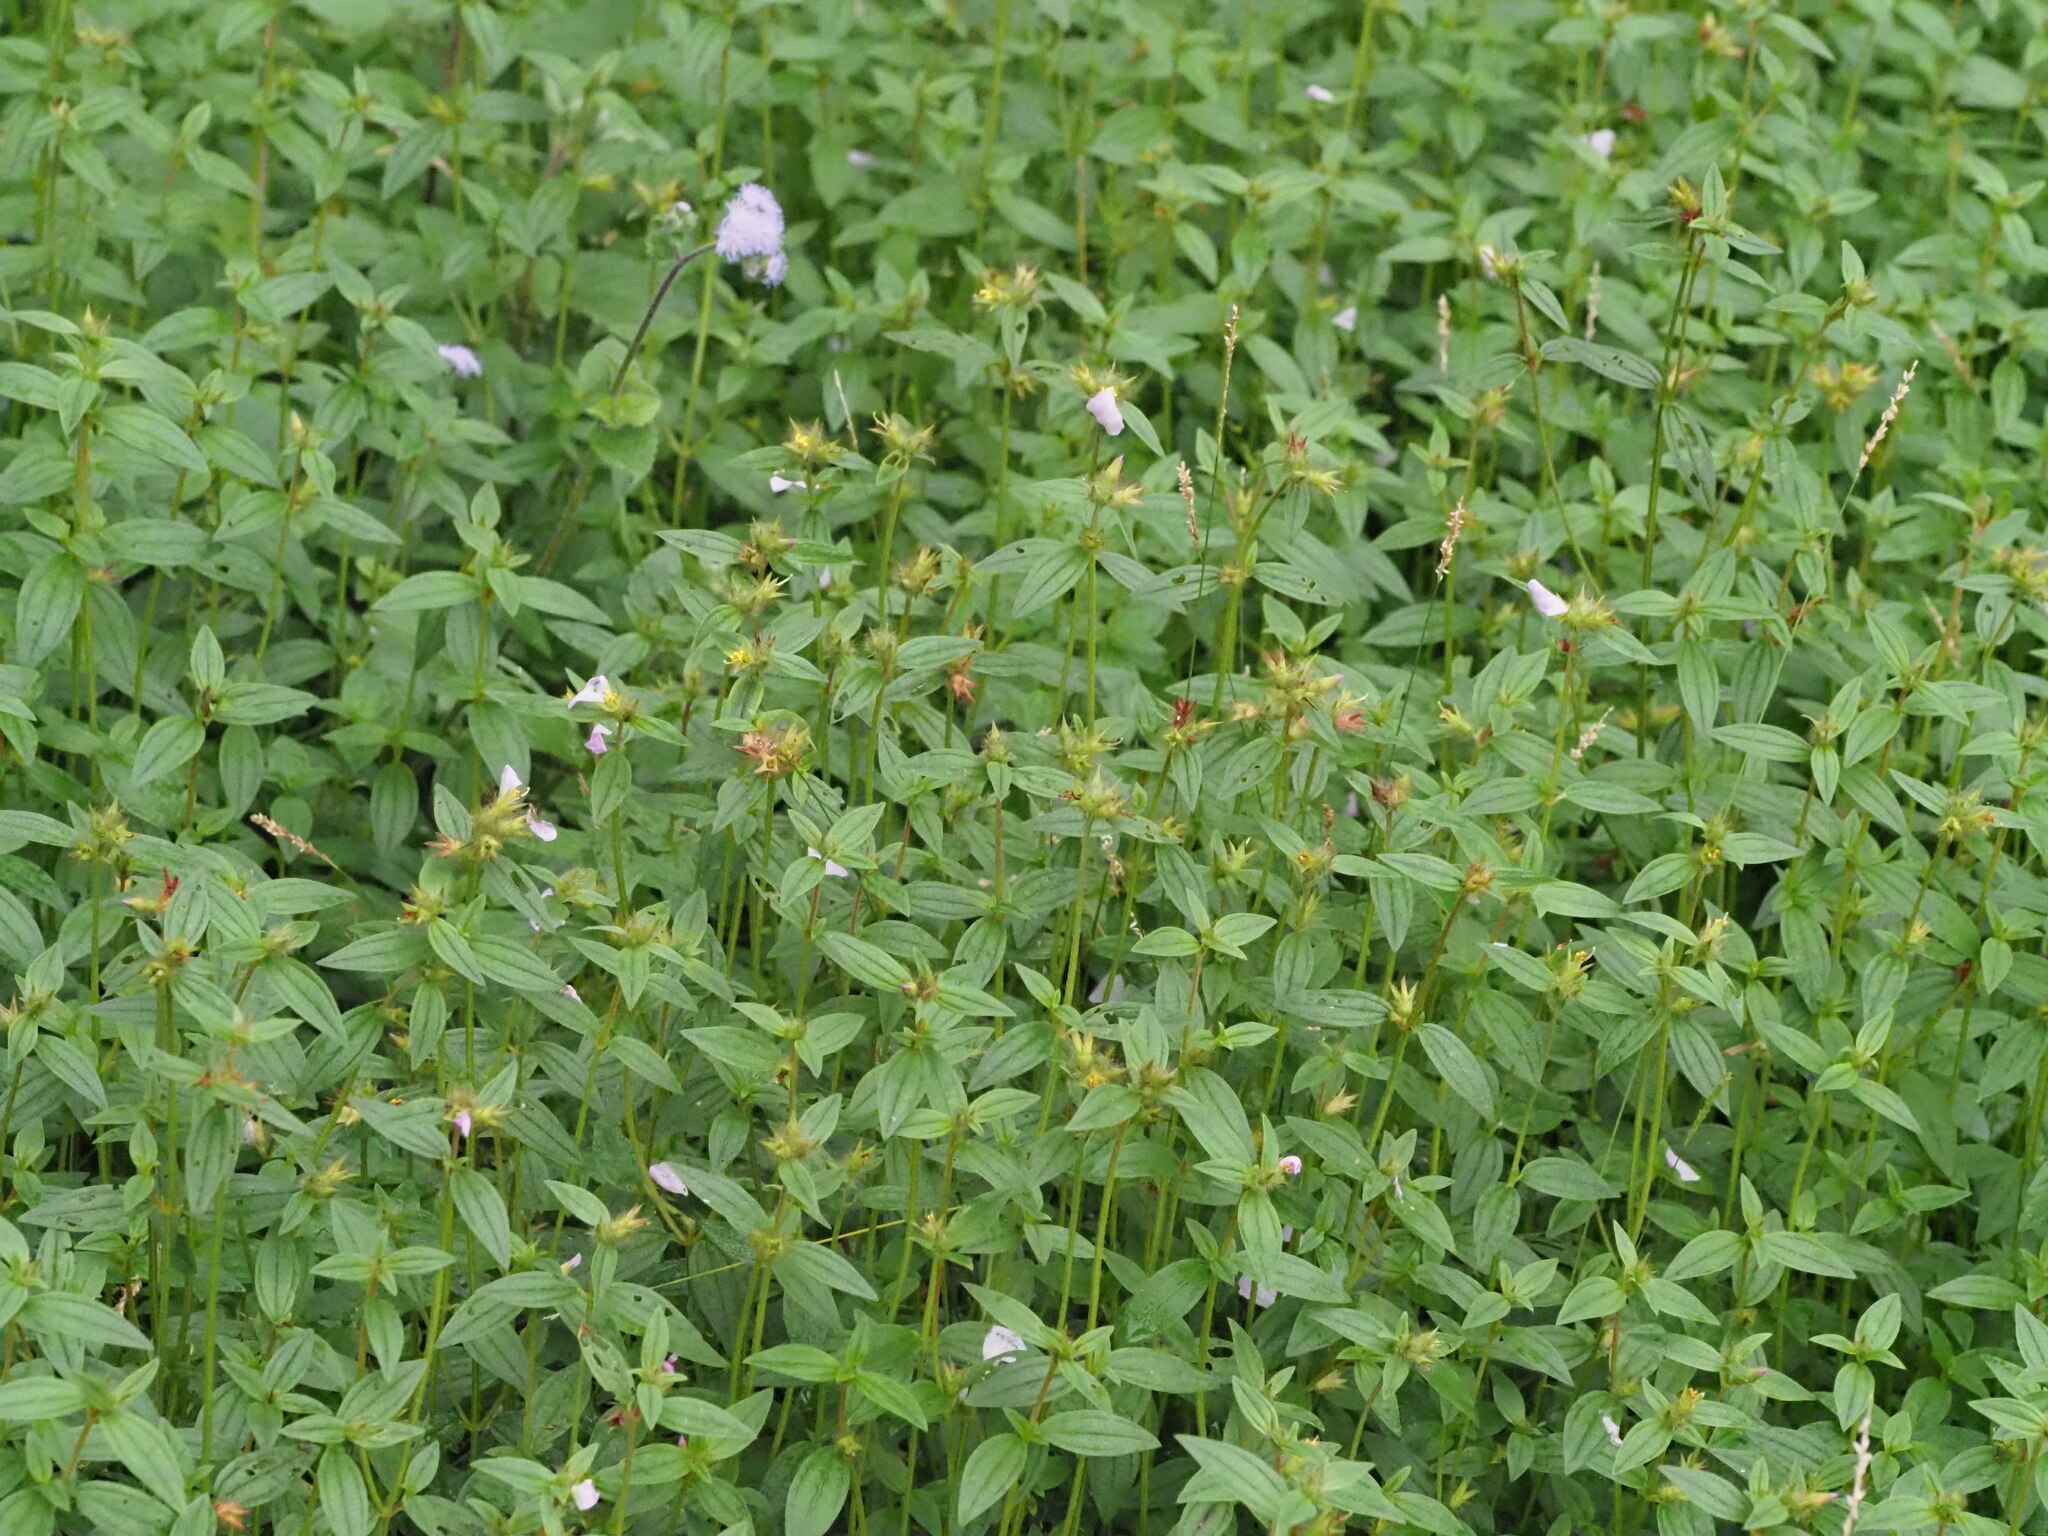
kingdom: Plantae
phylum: Tracheophyta
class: Magnoliopsida
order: Myrtales
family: Melastomataceae
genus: Pterolepis
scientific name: Pterolepis glomerata
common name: False meadowbeauty
